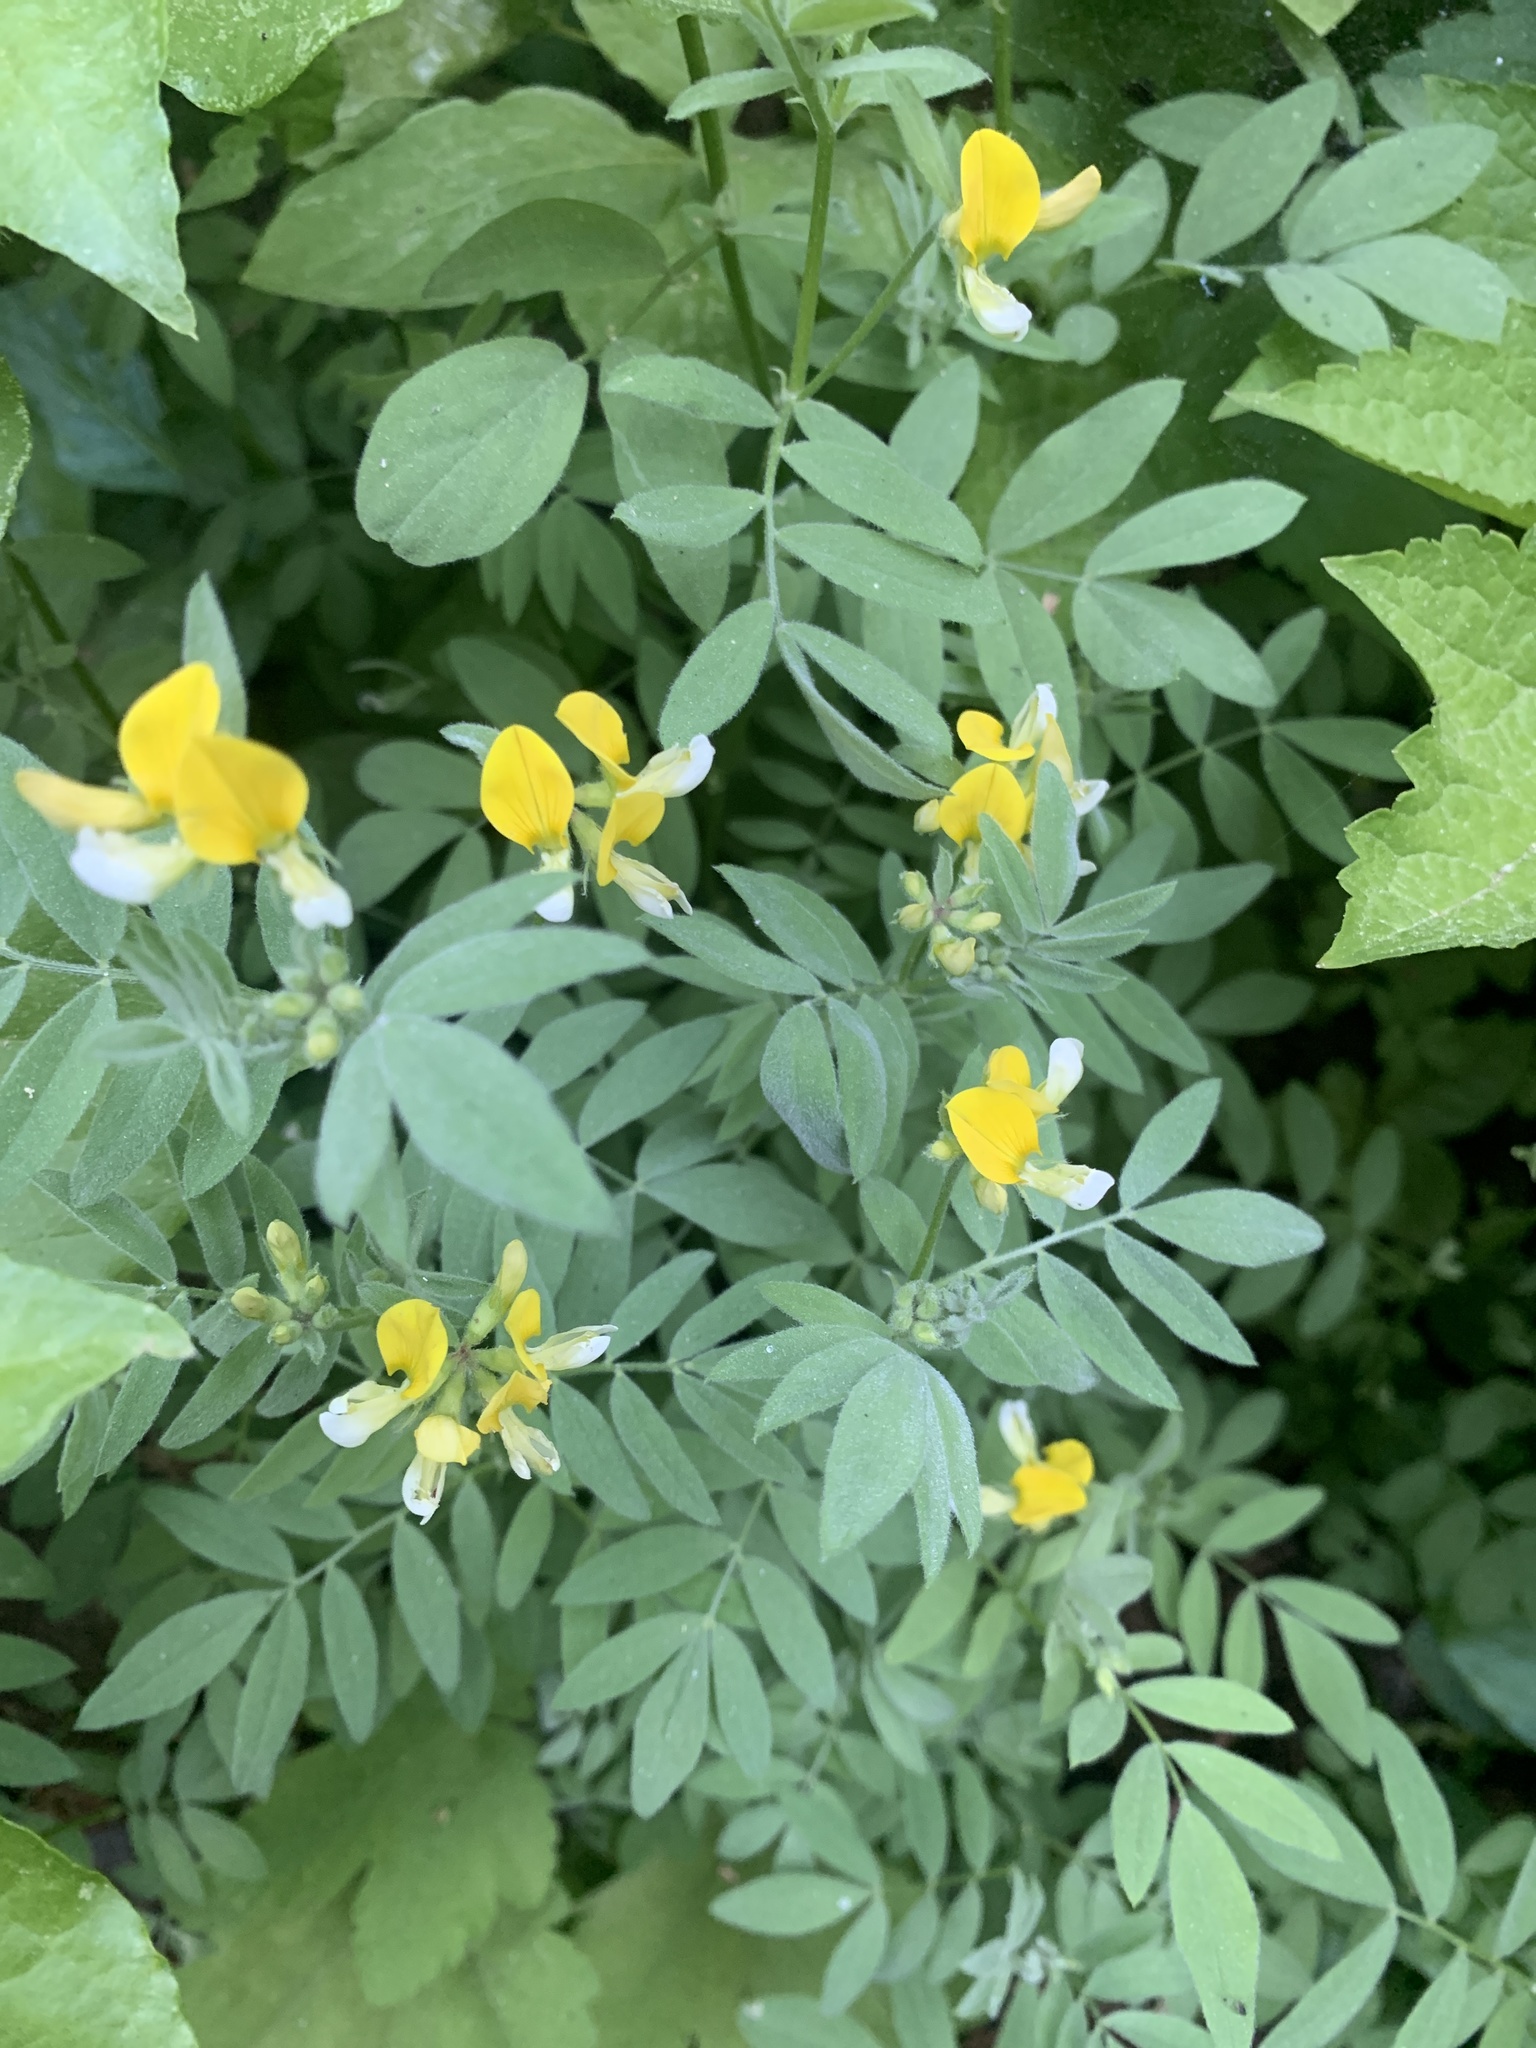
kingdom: Plantae
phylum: Tracheophyta
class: Magnoliopsida
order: Fabales
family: Fabaceae
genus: Hosackia
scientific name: Hosackia oblongifolia
